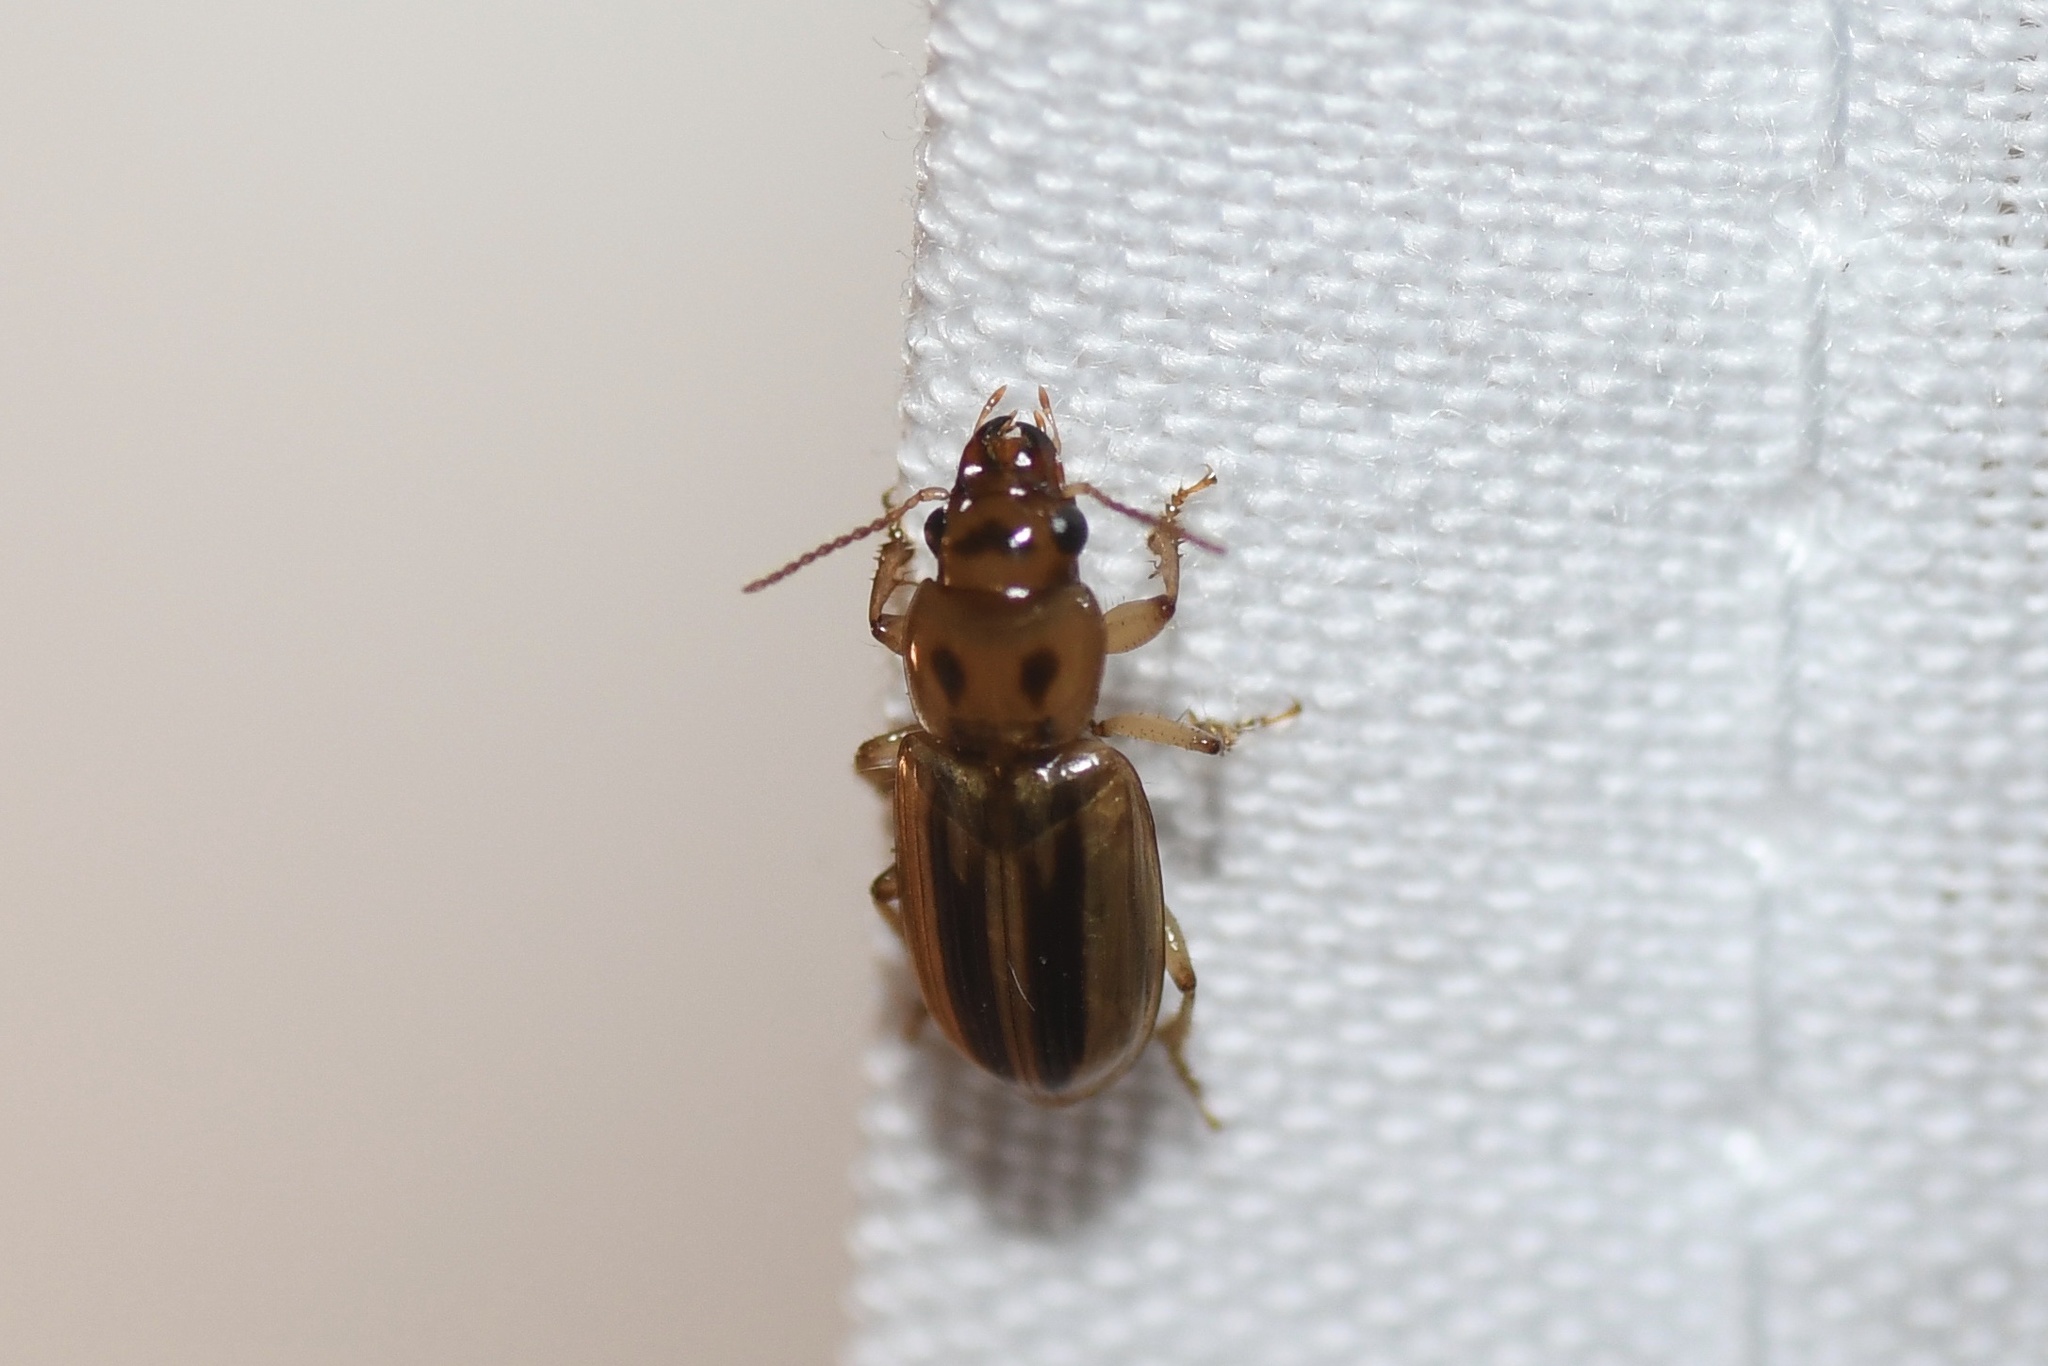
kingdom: Animalia
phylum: Arthropoda
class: Insecta
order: Coleoptera
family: Carabidae
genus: Stenolophus
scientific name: Stenolophus lineola
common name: Lined stenolophus
